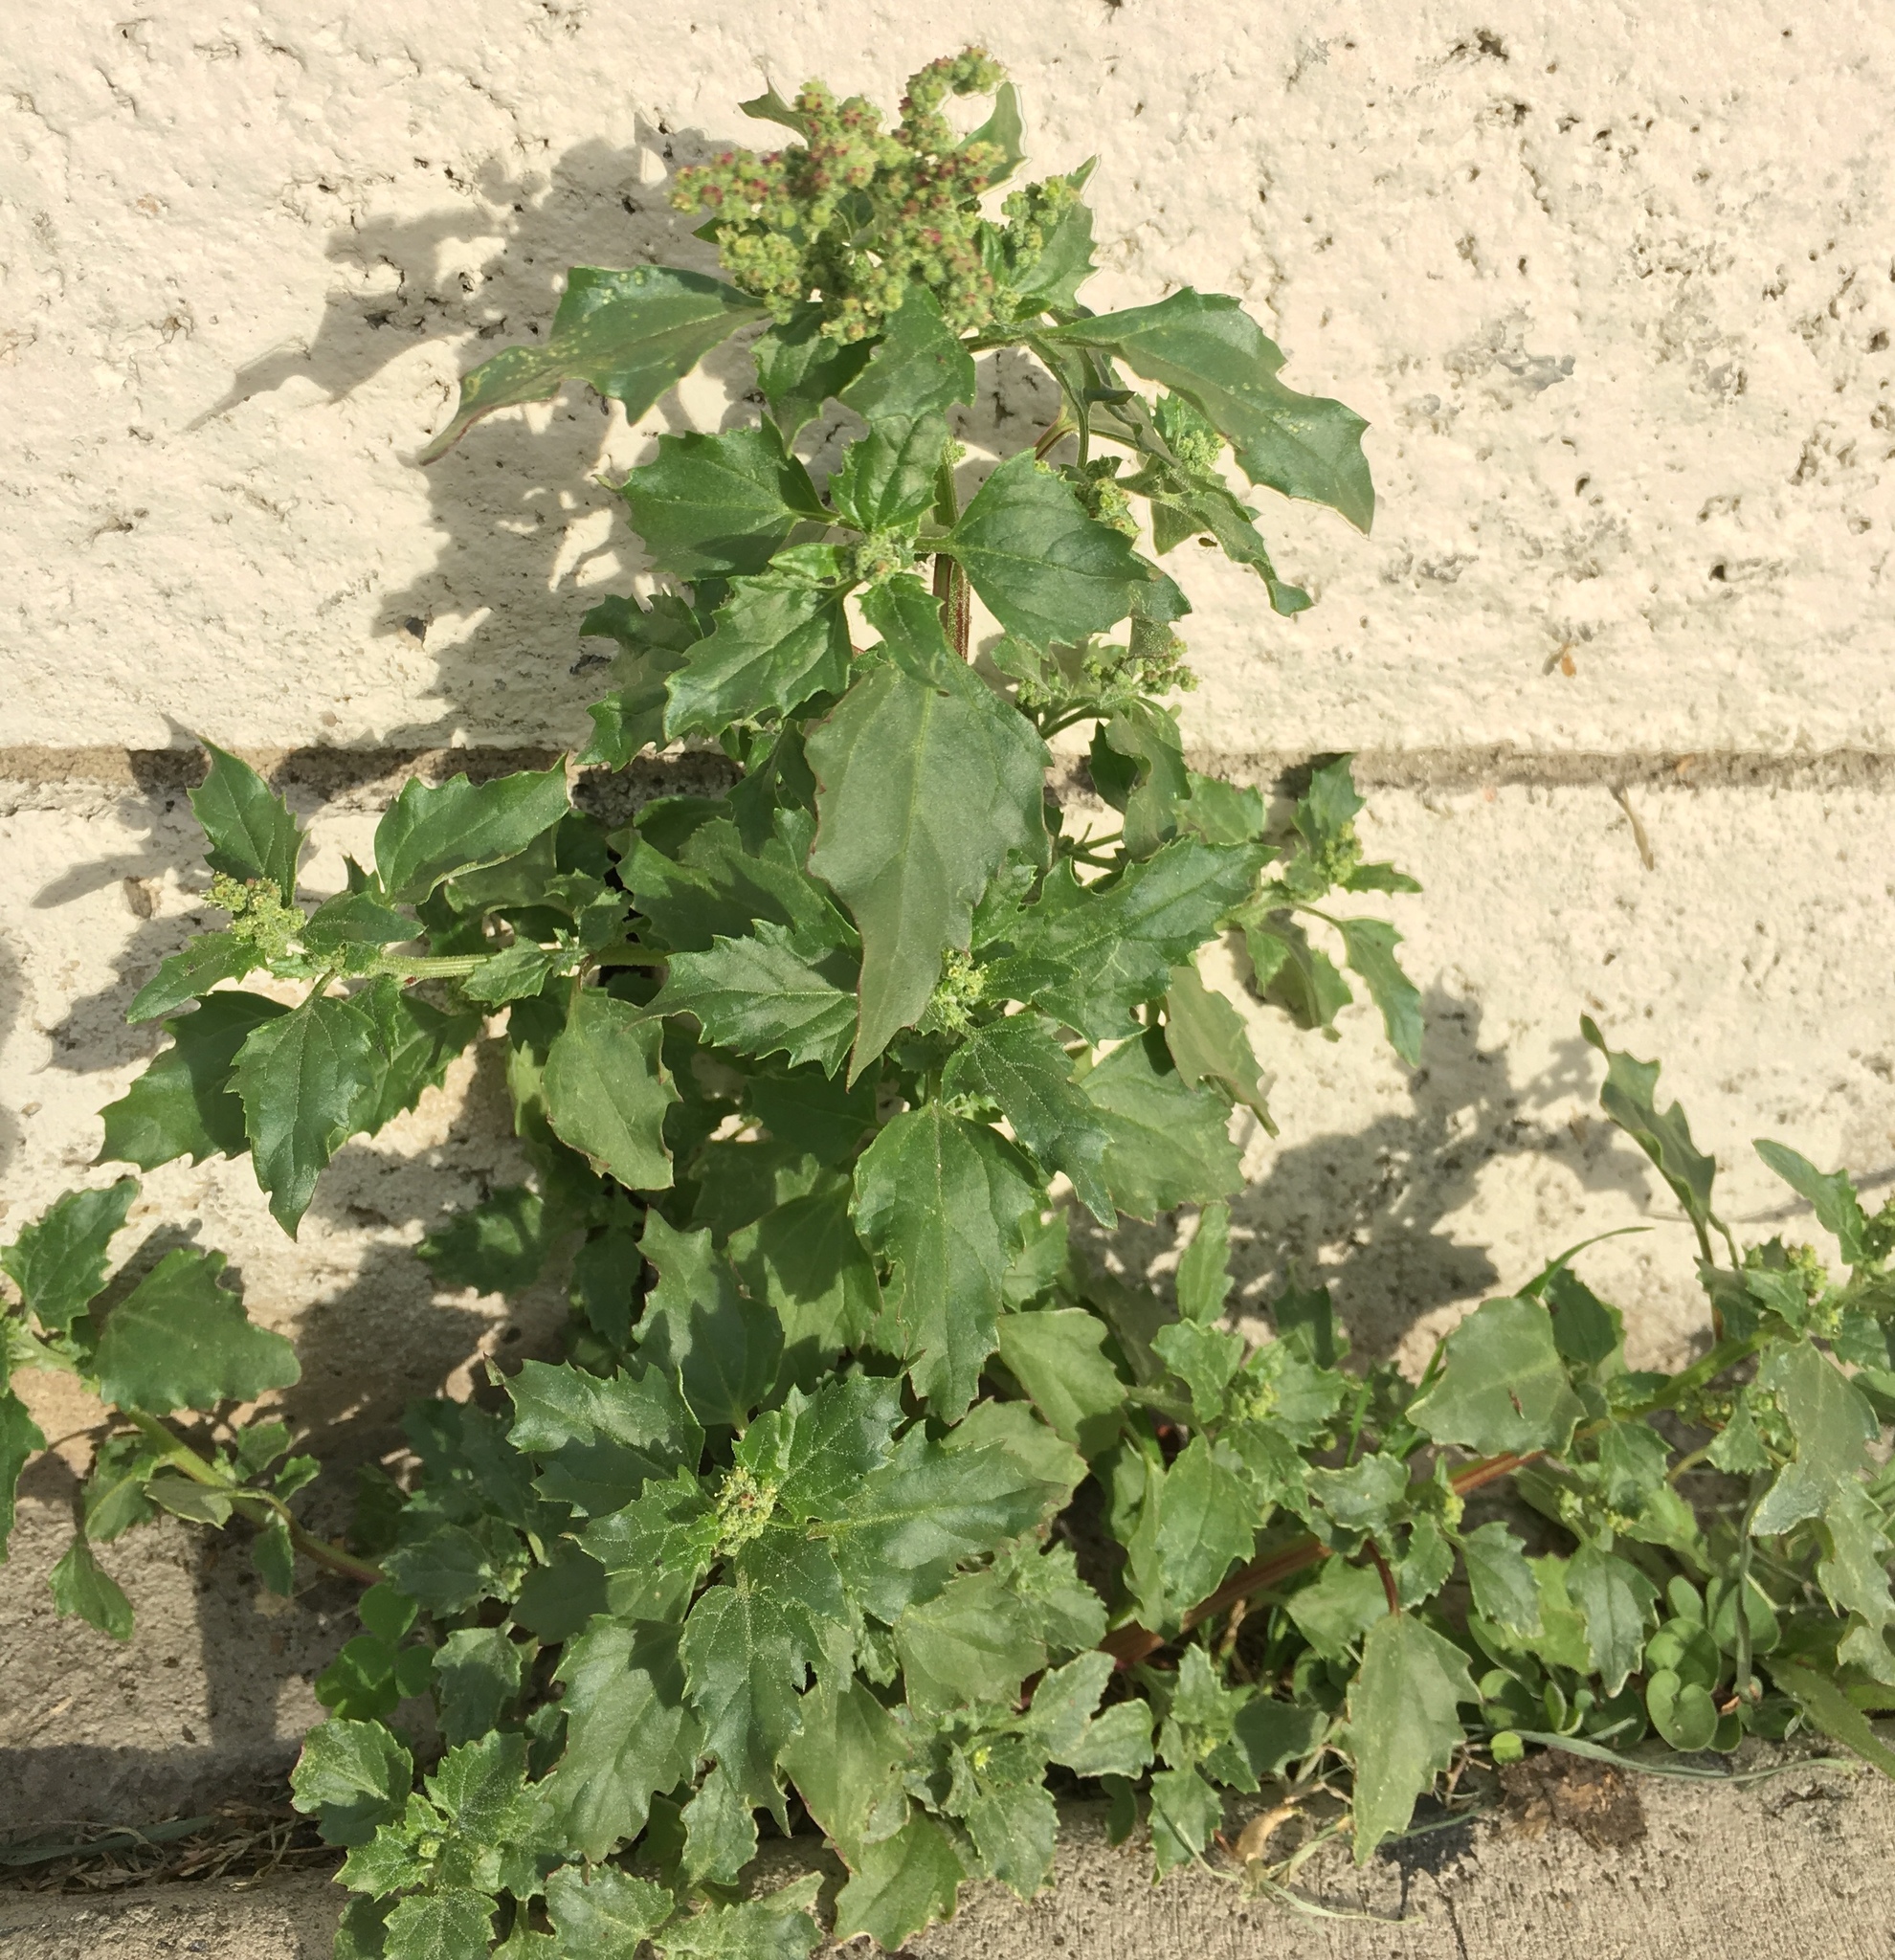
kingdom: Plantae
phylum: Tracheophyta
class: Magnoliopsida
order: Caryophyllales
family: Amaranthaceae
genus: Chenopodiastrum
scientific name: Chenopodiastrum murale
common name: Sowbane
